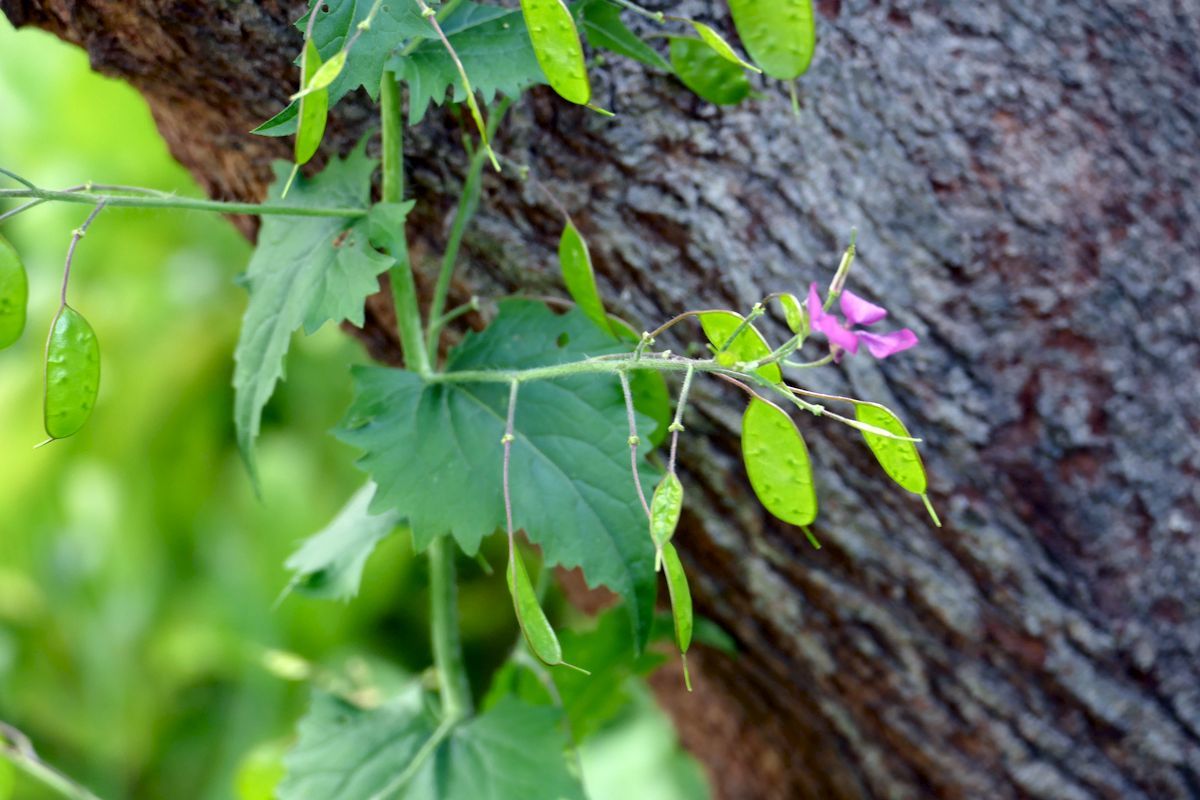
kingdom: Plantae
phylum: Tracheophyta
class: Magnoliopsida
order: Brassicales
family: Brassicaceae
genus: Lunaria
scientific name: Lunaria annua
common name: Honesty
